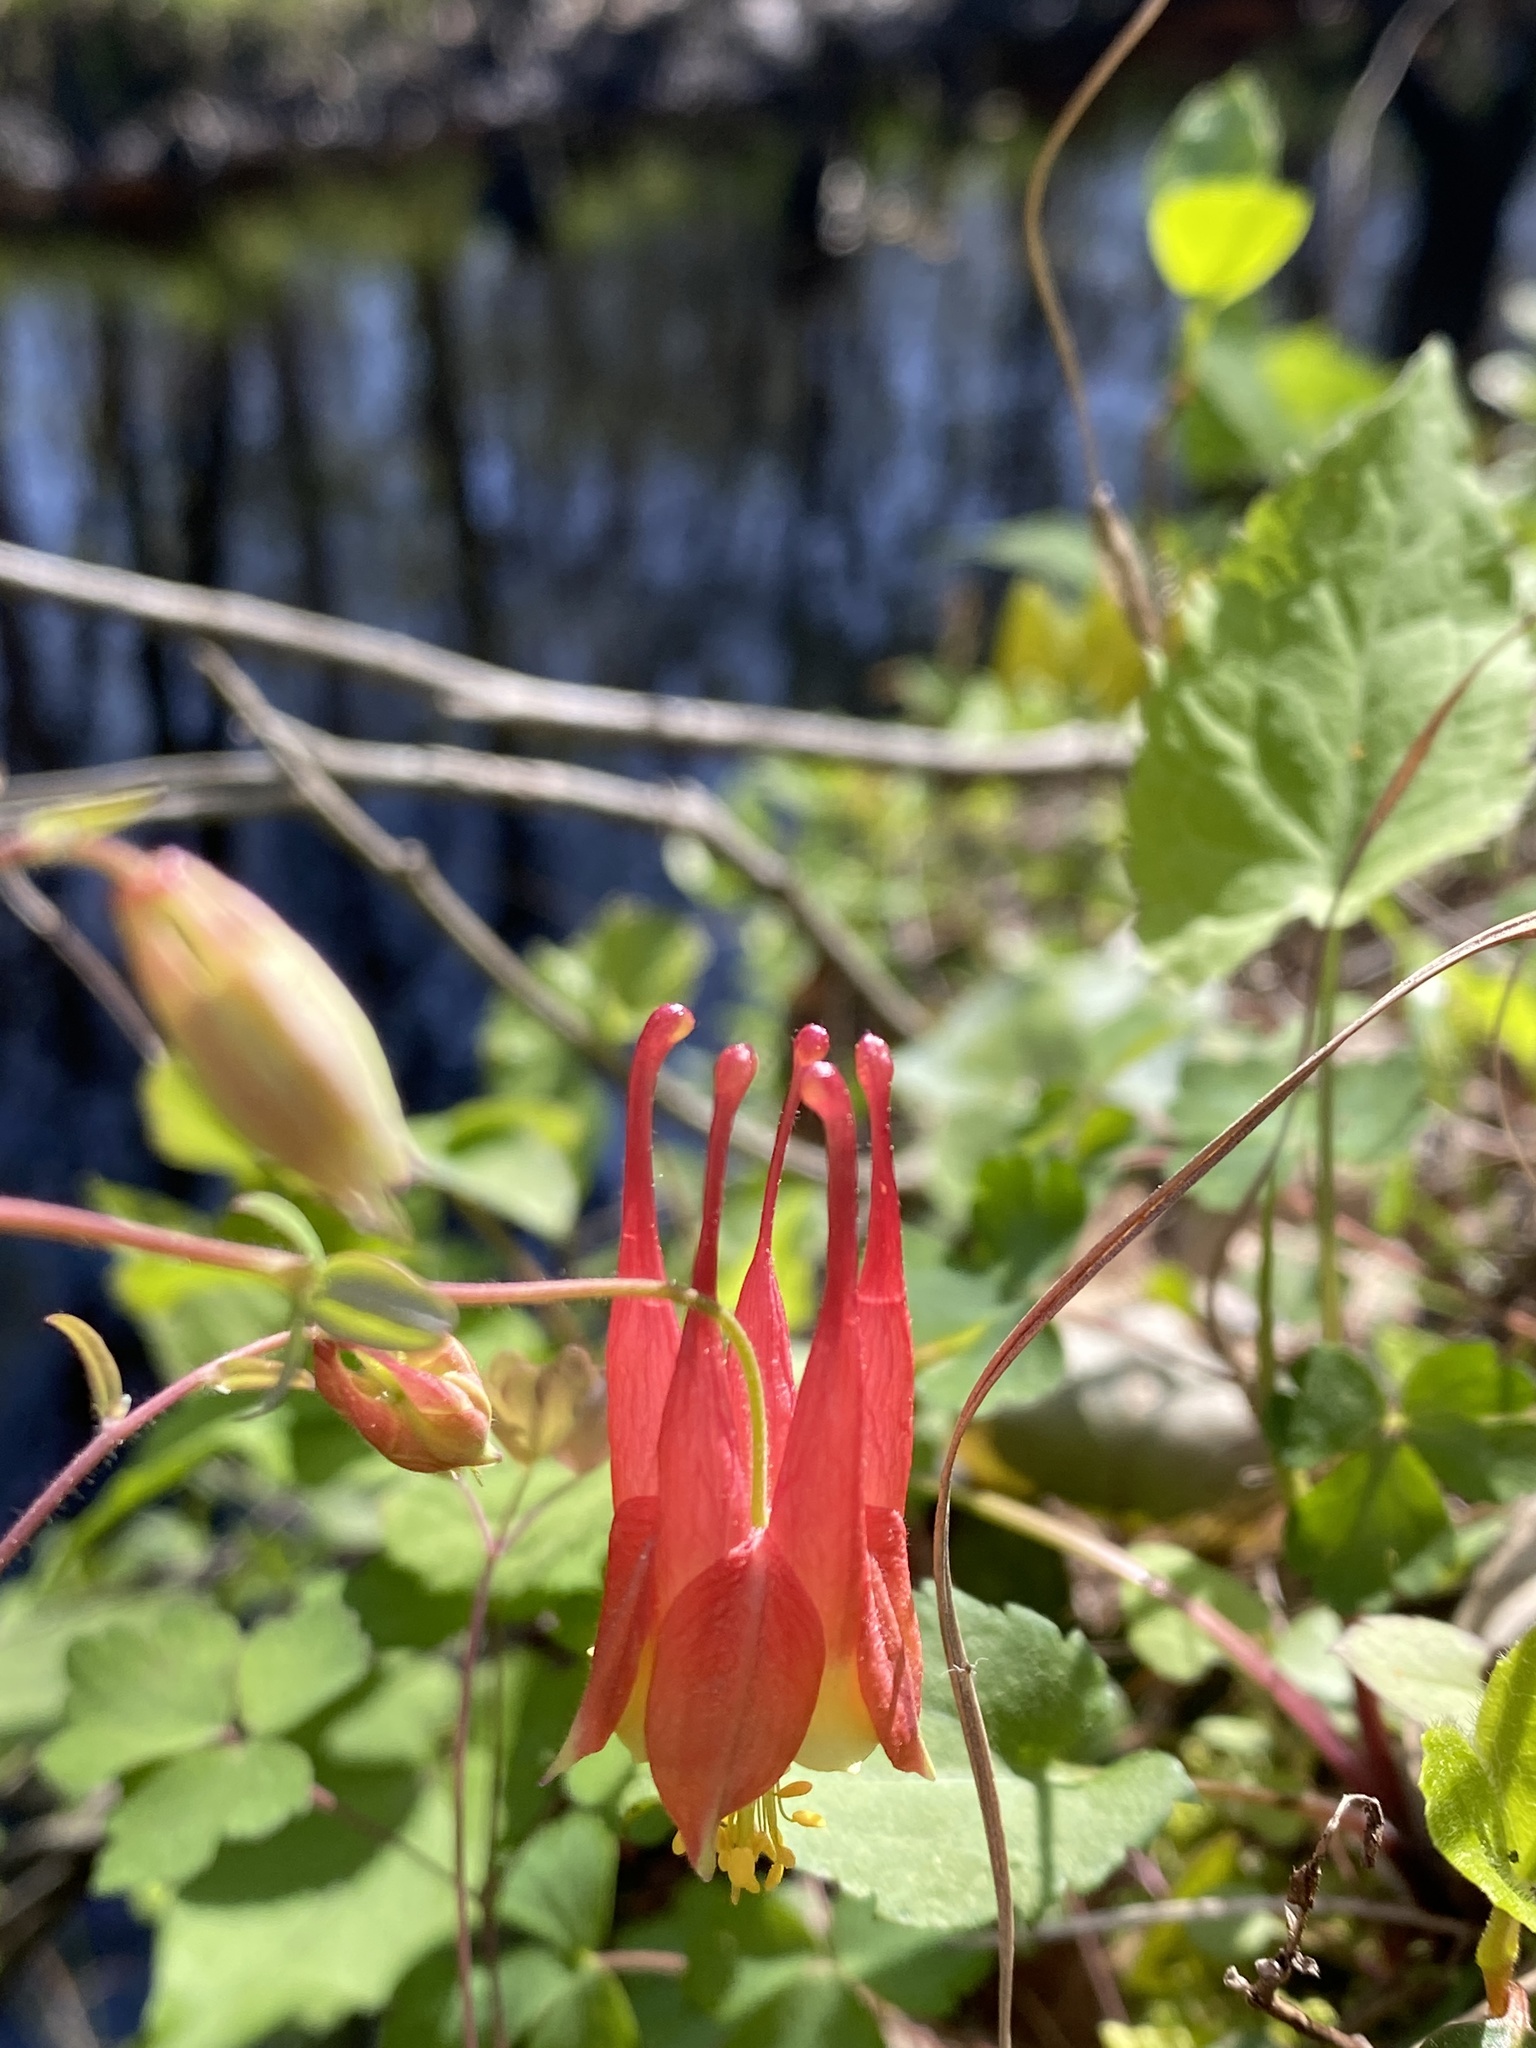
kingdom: Plantae
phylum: Tracheophyta
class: Magnoliopsida
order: Ranunculales
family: Ranunculaceae
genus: Aquilegia
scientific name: Aquilegia canadensis
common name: American columbine
